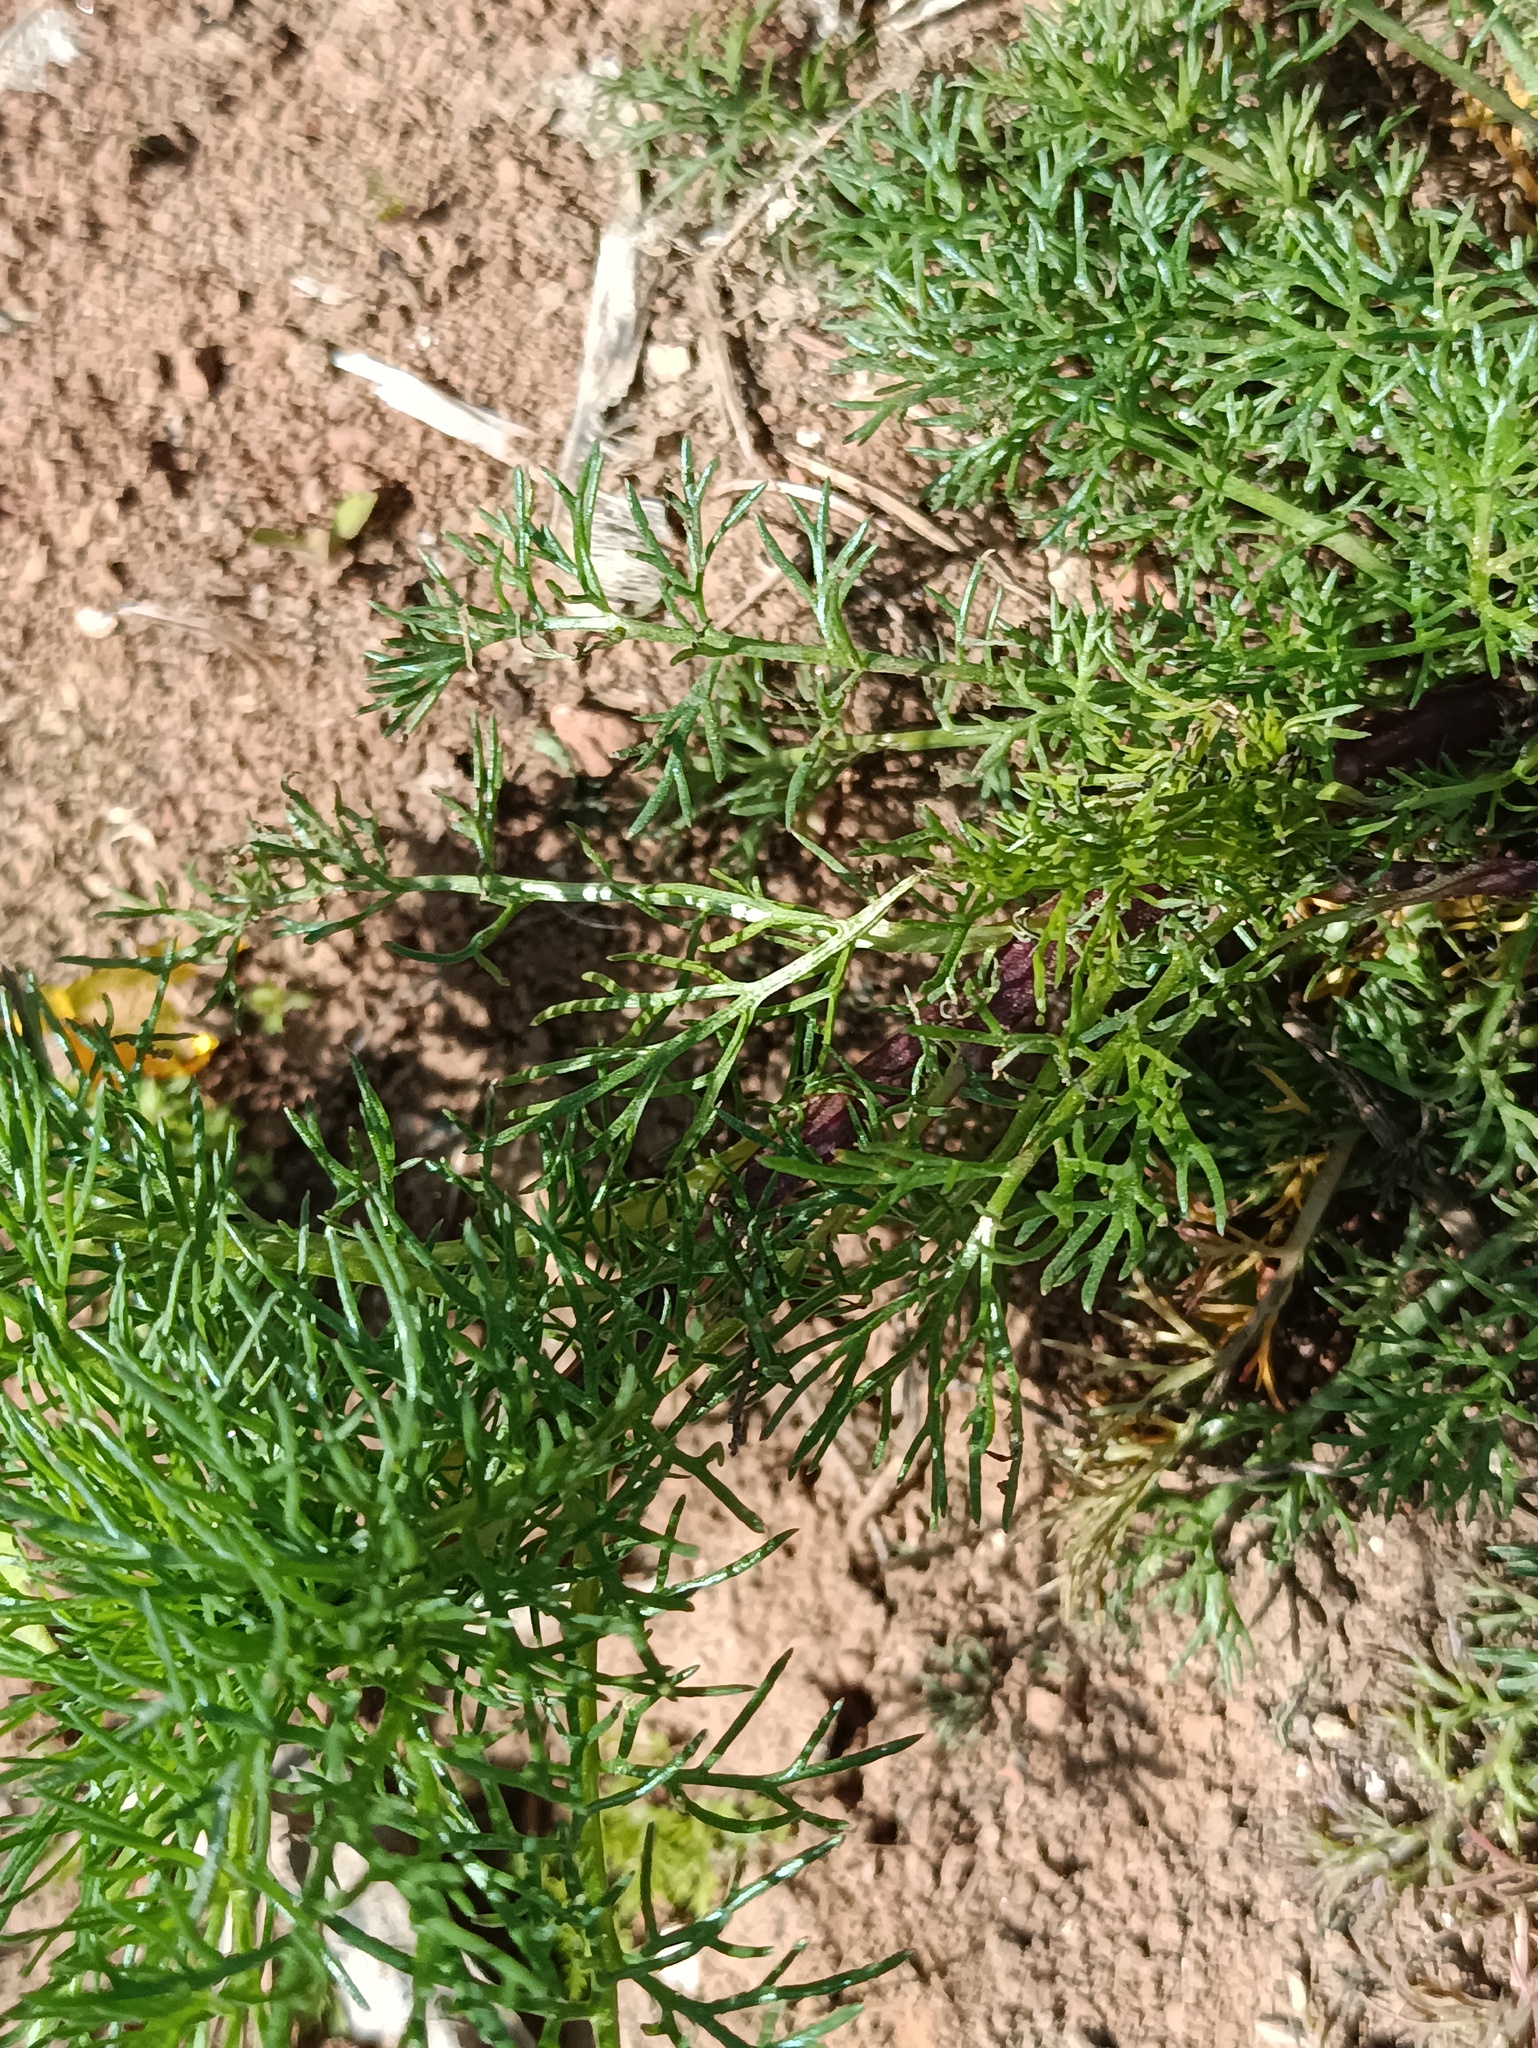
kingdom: Plantae
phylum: Tracheophyta
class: Magnoliopsida
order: Asterales
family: Asteraceae
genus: Tripleurospermum
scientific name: Tripleurospermum inodorum
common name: Scentless mayweed
